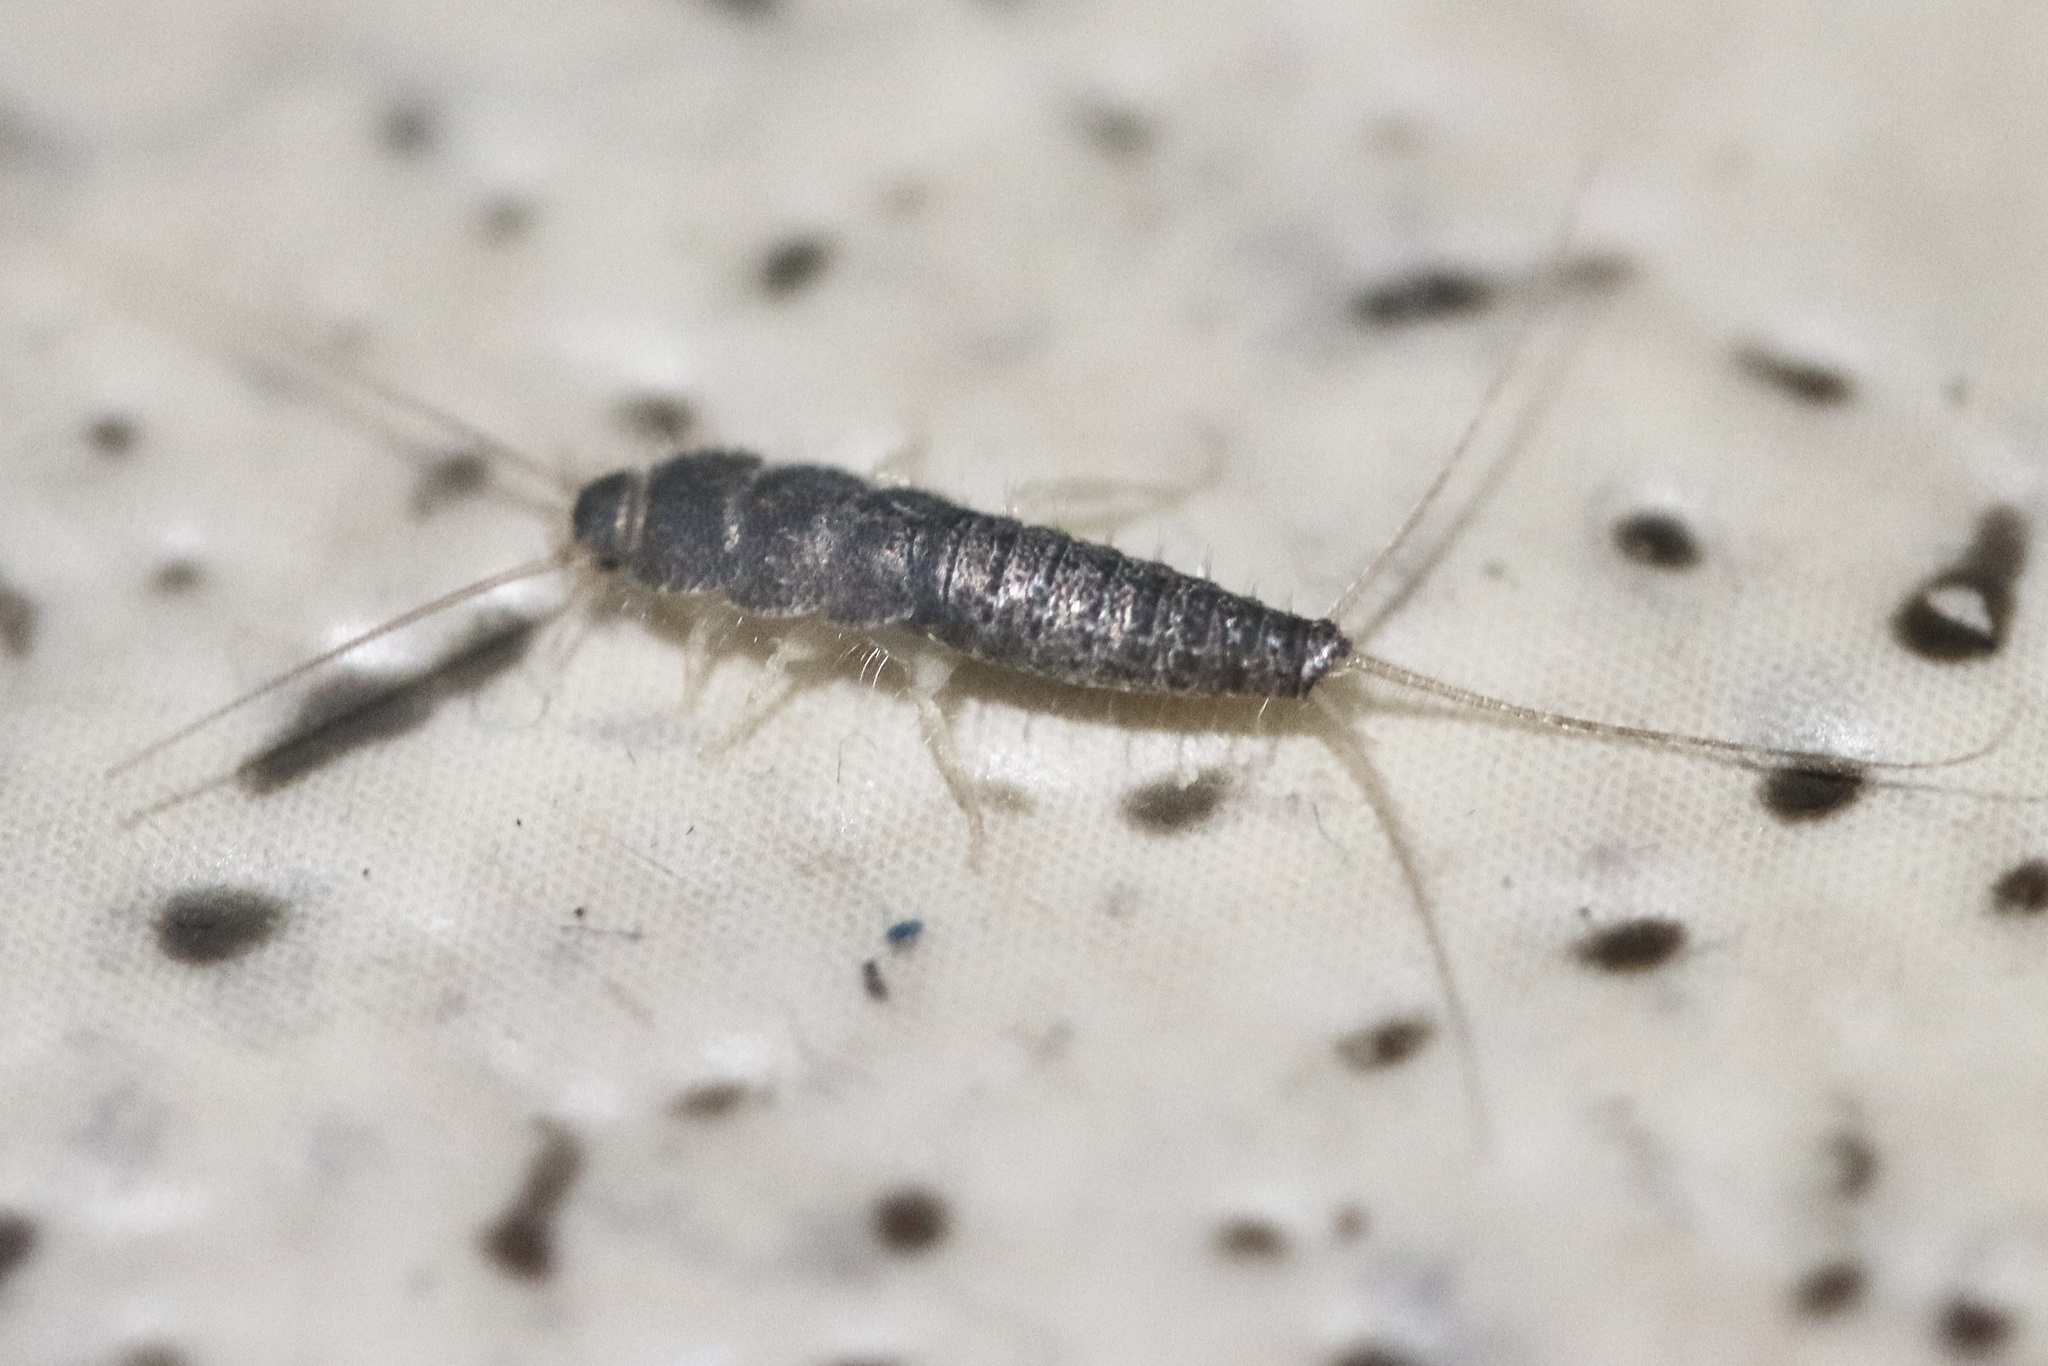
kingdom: Animalia
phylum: Arthropoda
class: Insecta
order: Zygentoma
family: Lepismatidae
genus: Ctenolepisma
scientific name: Ctenolepisma longicaudatum
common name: Silverfish
